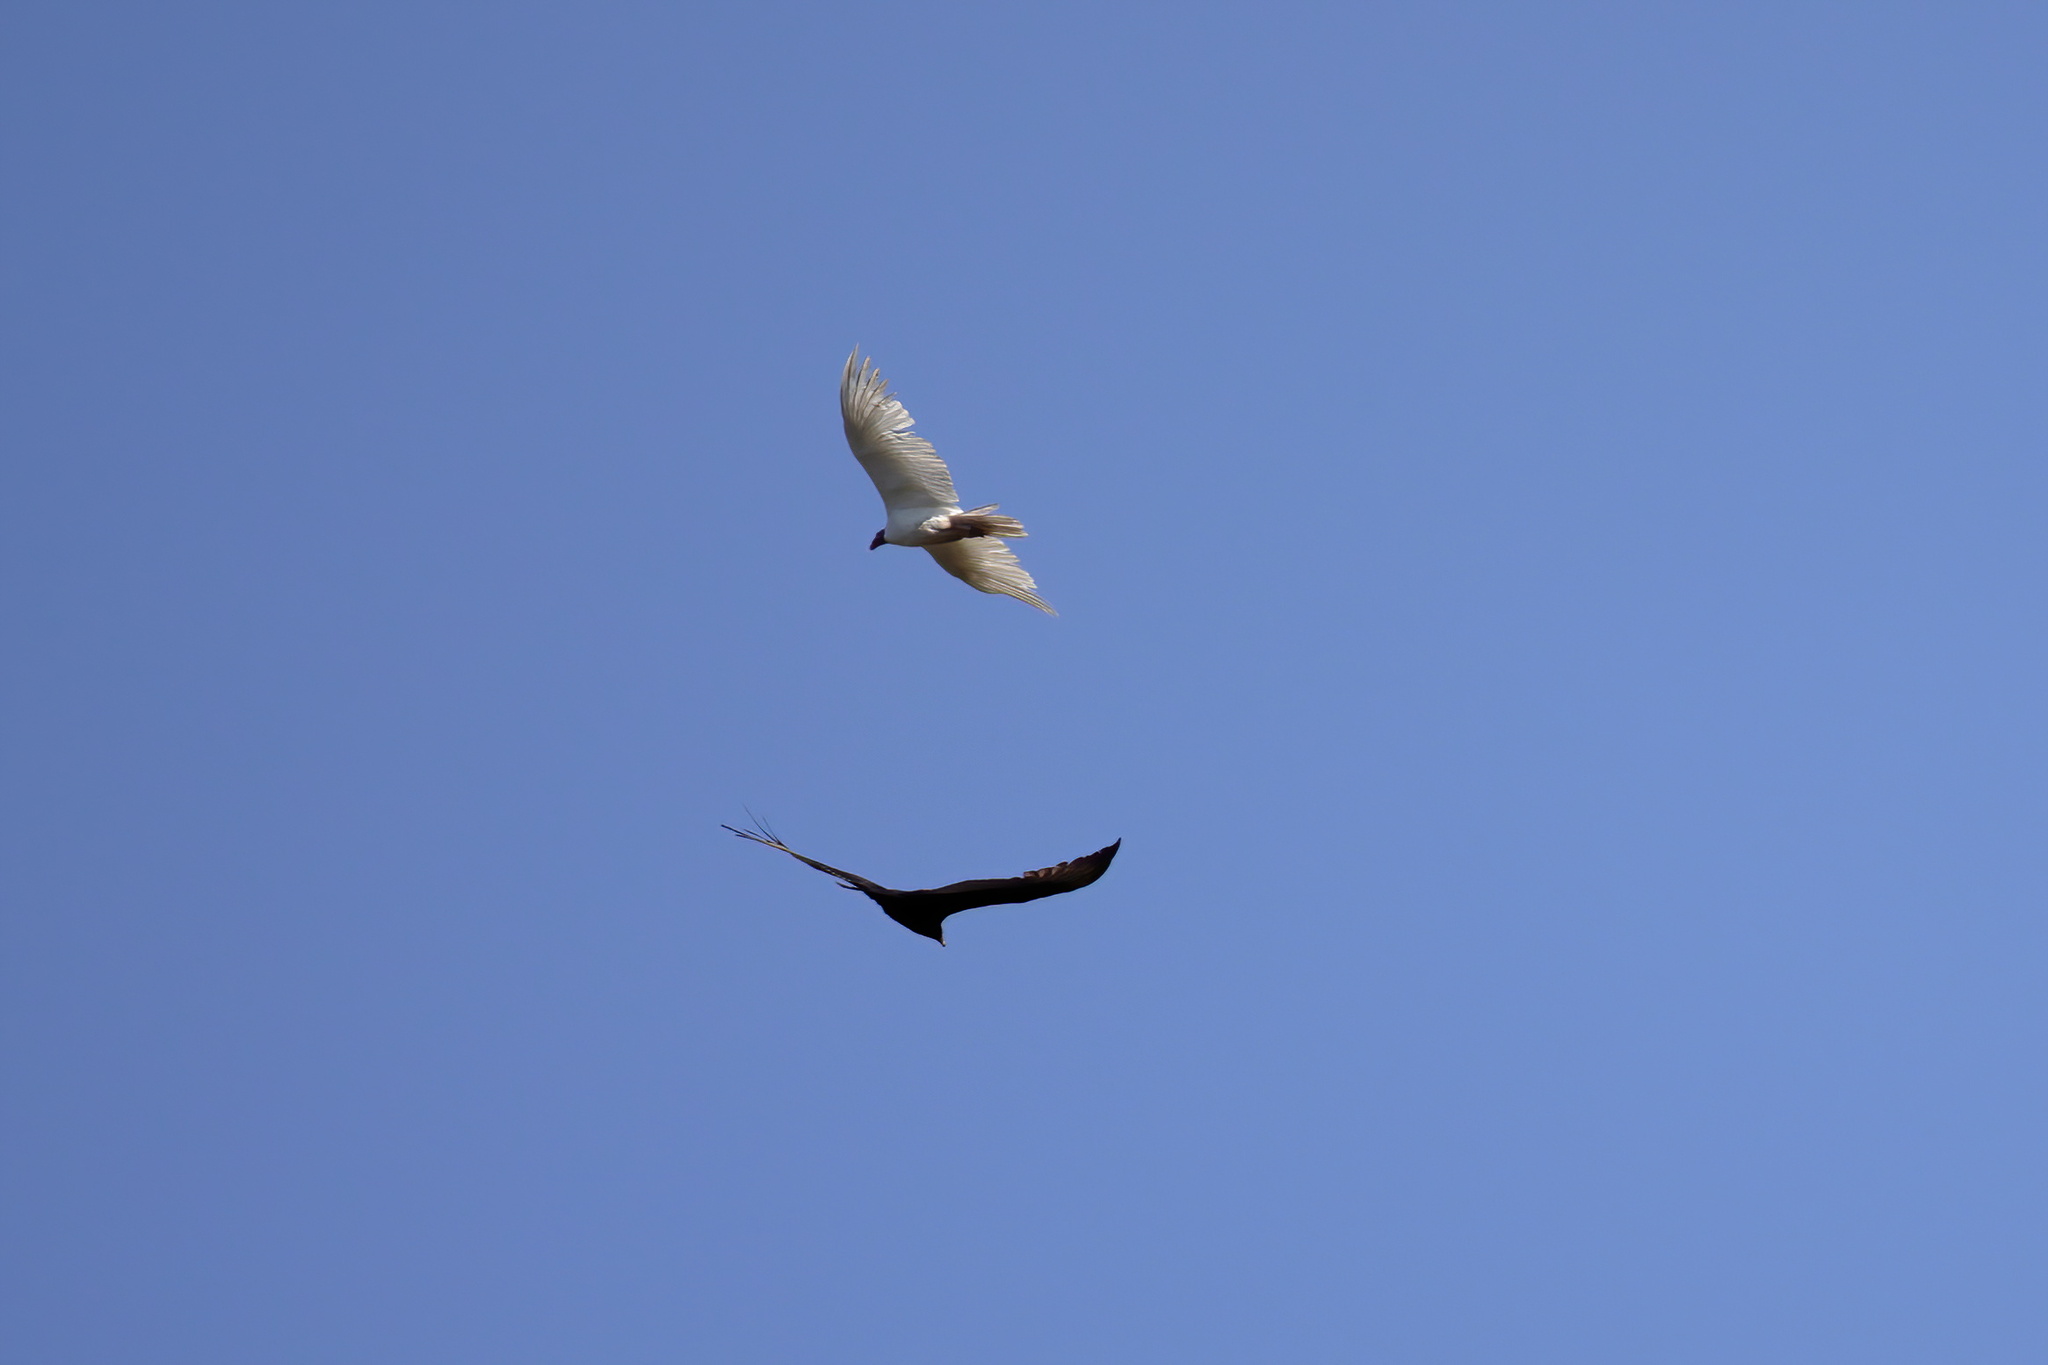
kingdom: Animalia
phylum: Chordata
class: Aves
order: Accipitriformes
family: Cathartidae
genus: Cathartes
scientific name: Cathartes aura
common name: Turkey vulture
